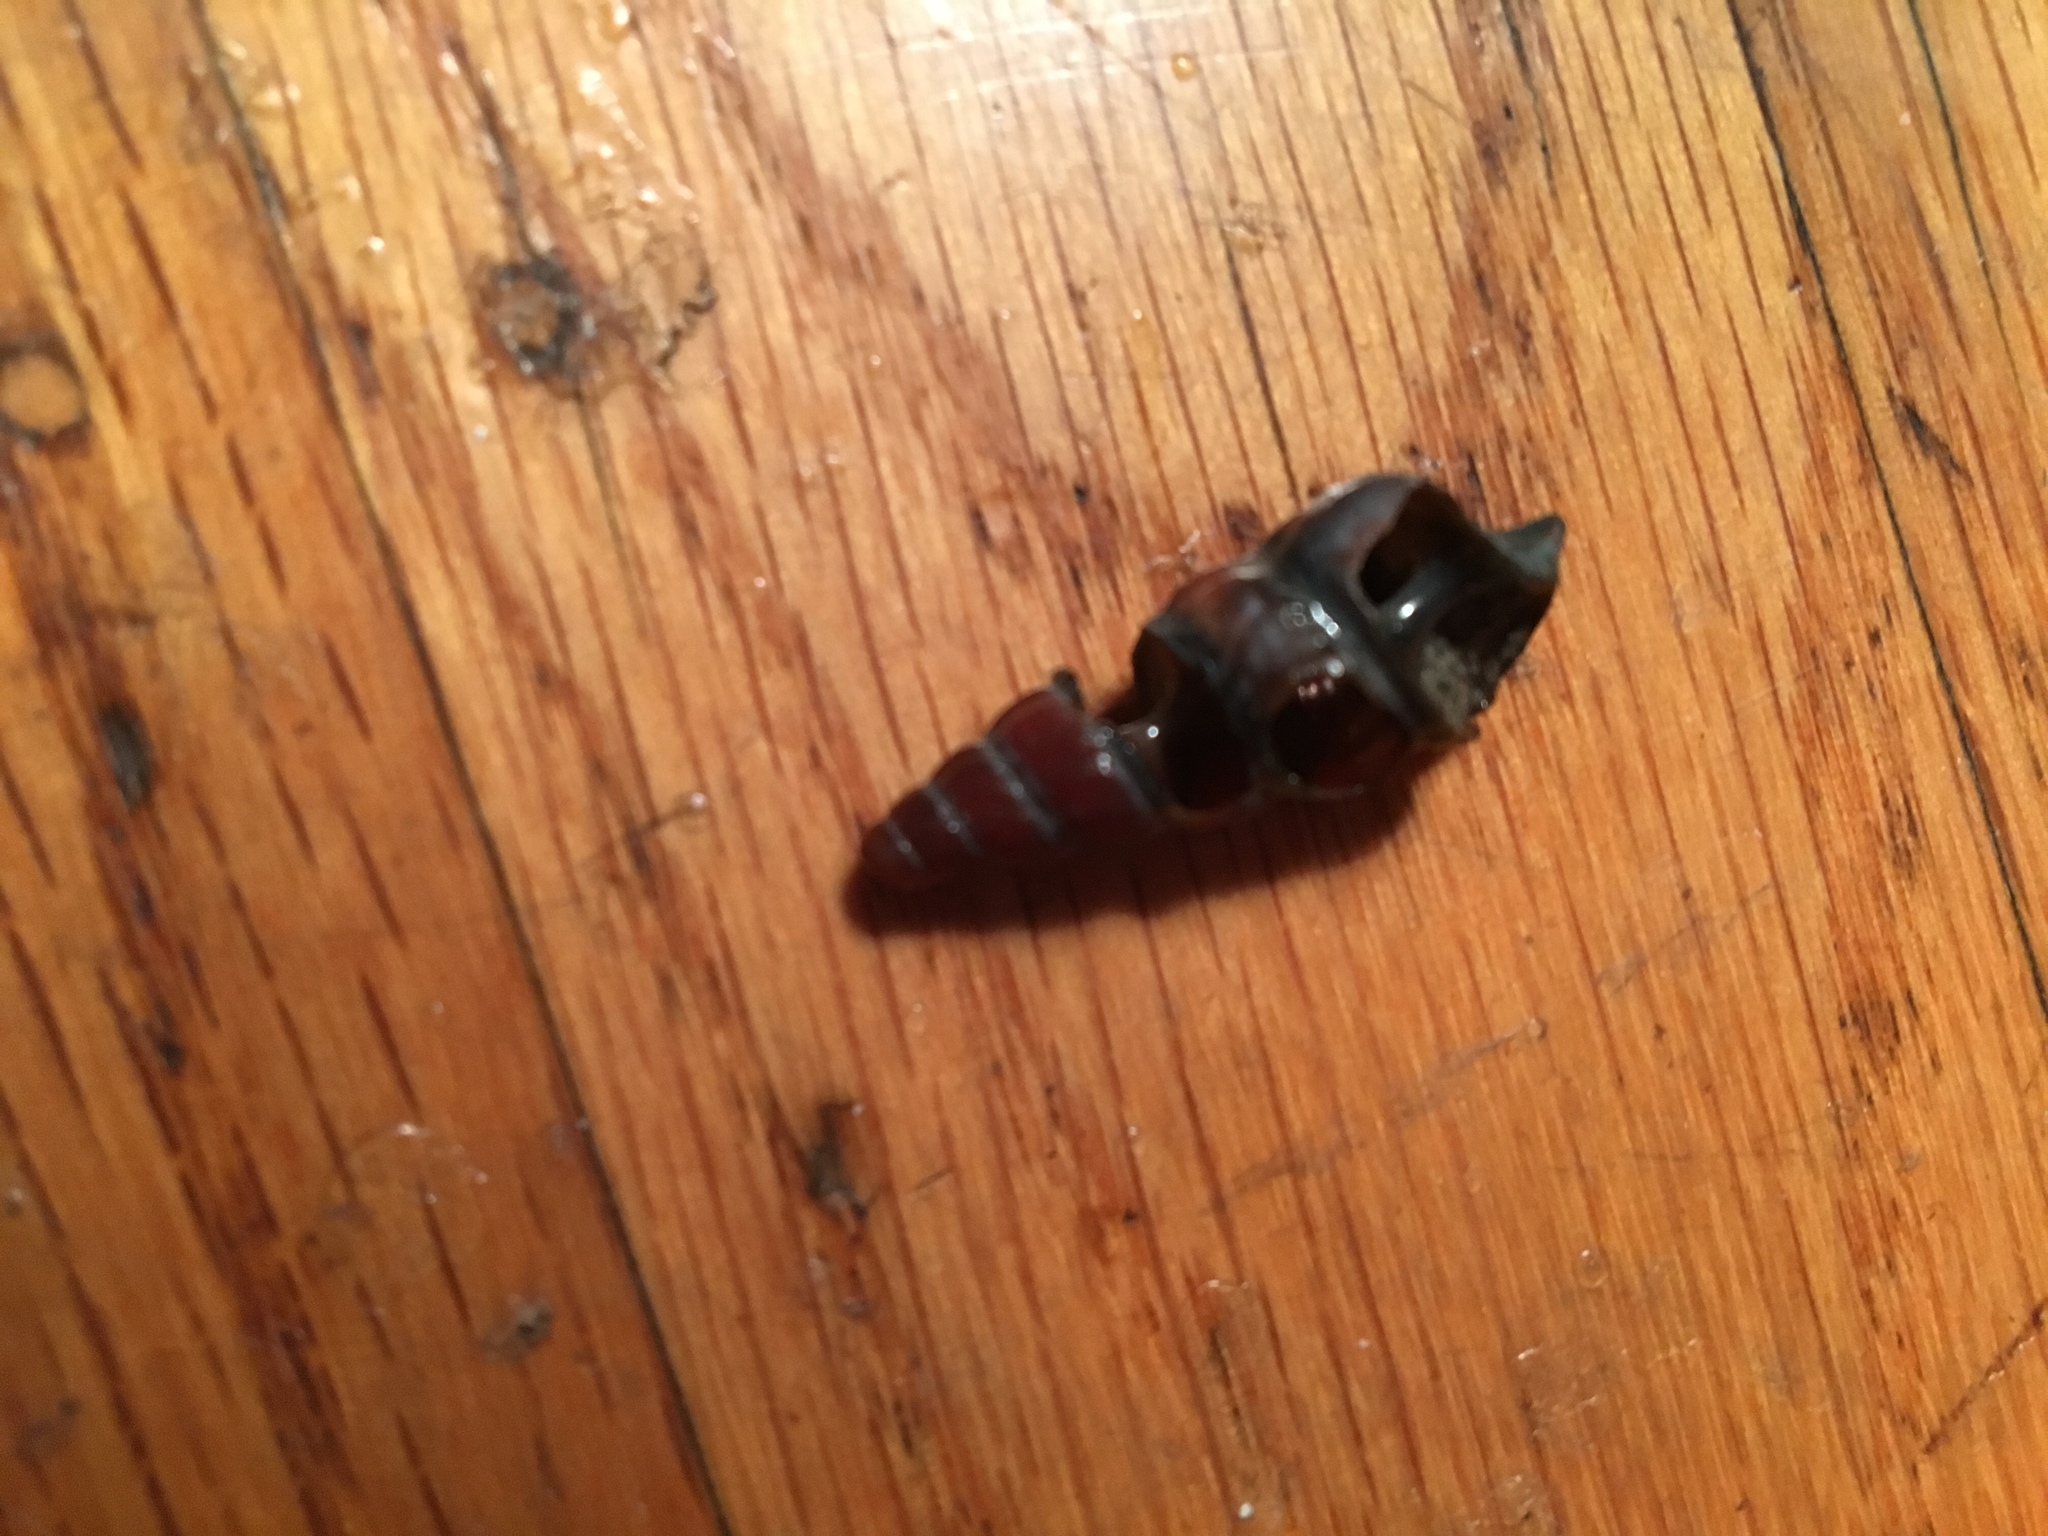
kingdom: Animalia
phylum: Mollusca
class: Gastropoda
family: Potamididae
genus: Cerithideopsis
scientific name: Cerithideopsis californica
